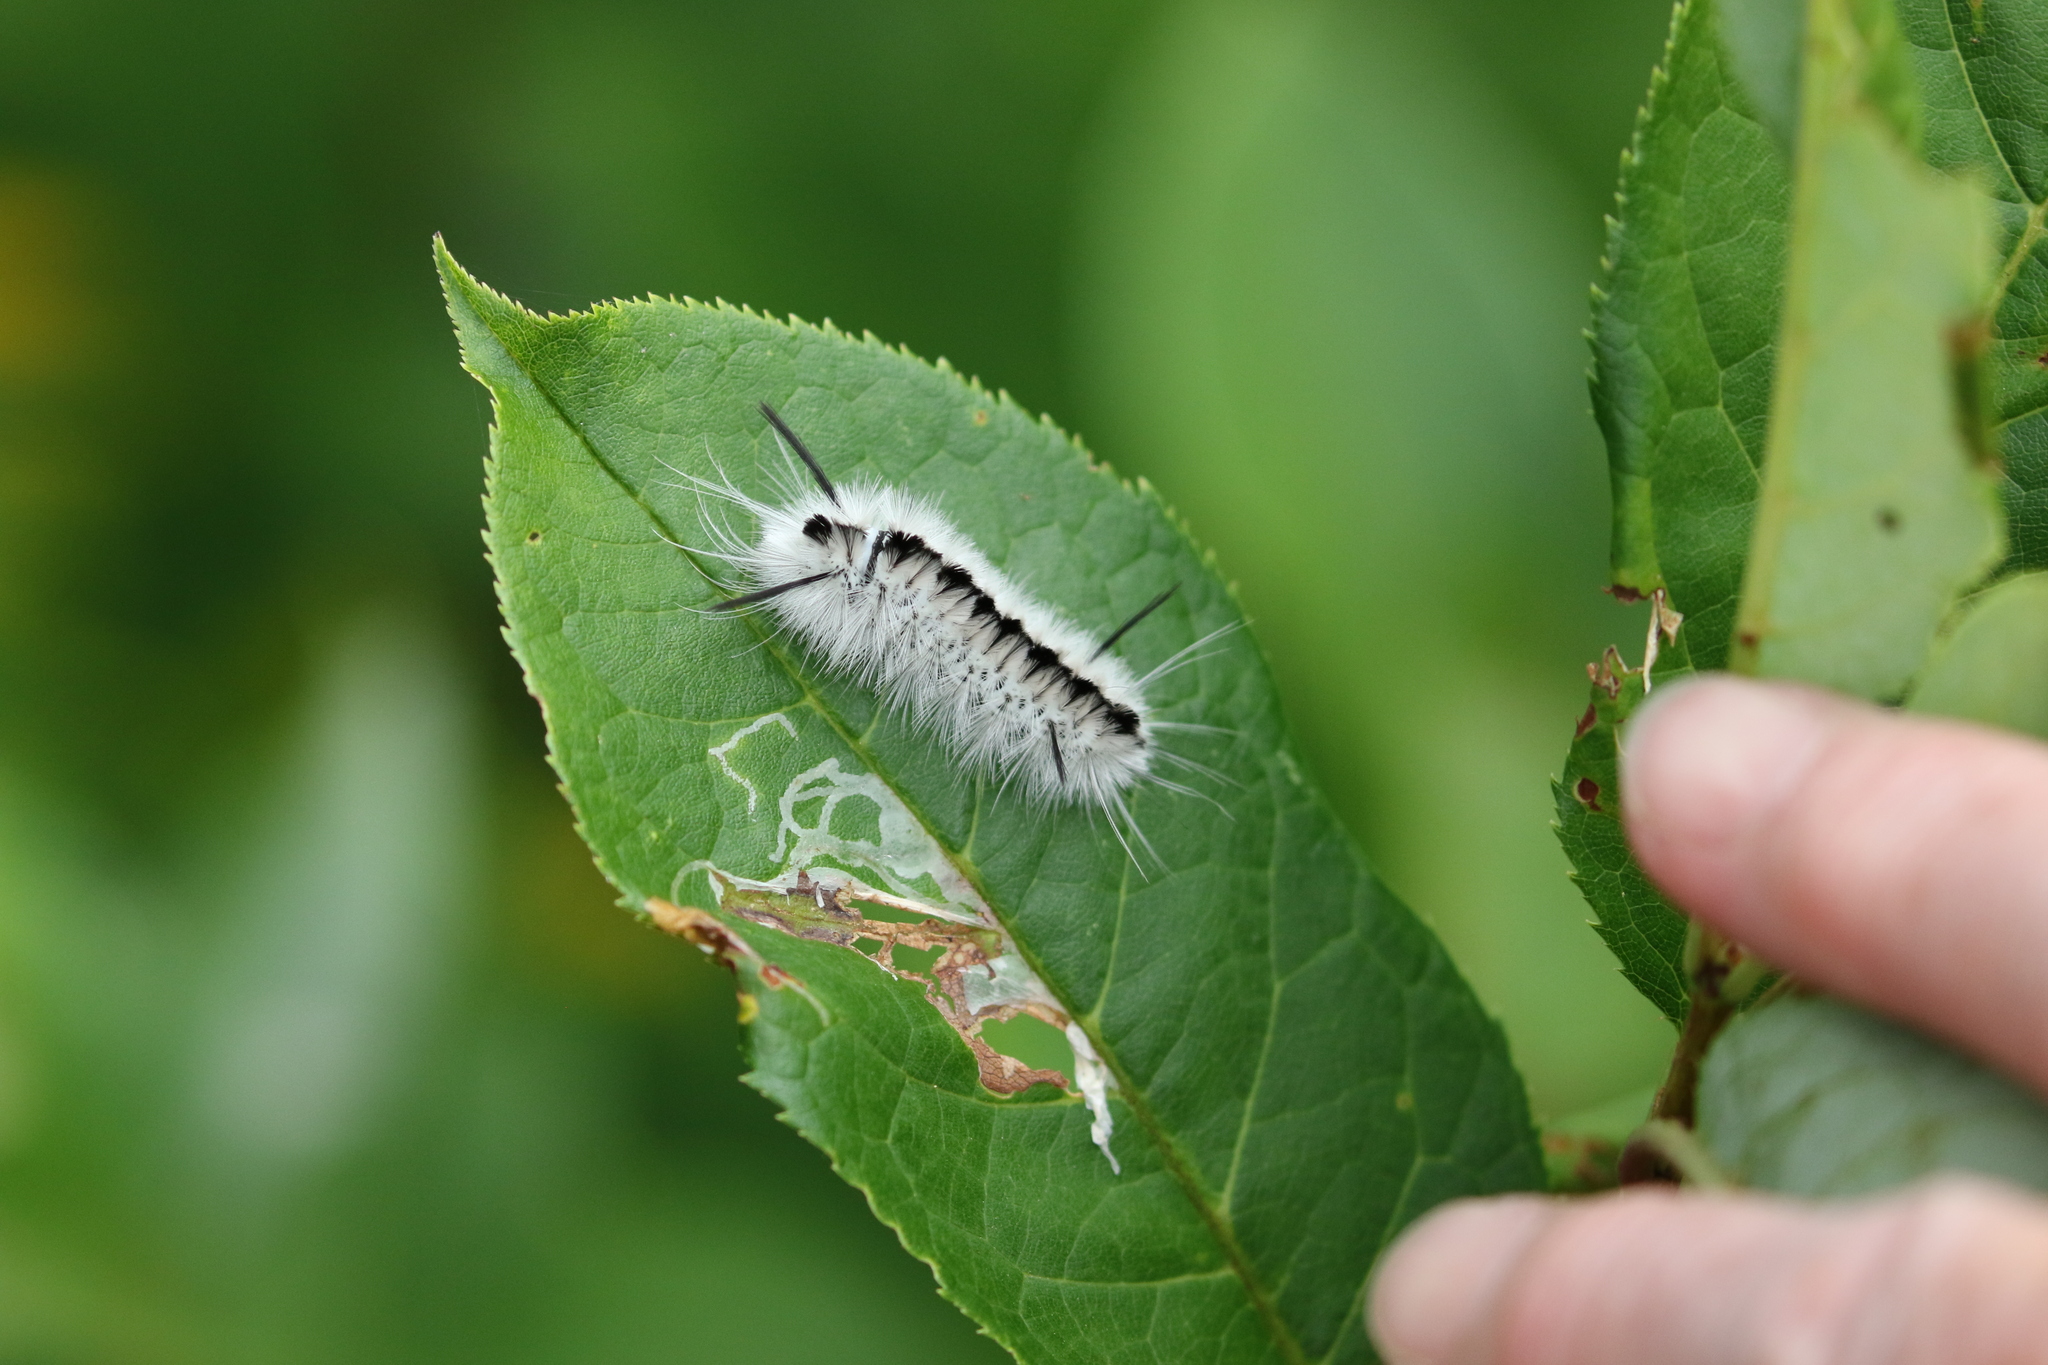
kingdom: Animalia
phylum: Arthropoda
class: Insecta
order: Lepidoptera
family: Erebidae
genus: Lophocampa
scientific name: Lophocampa caryae
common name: Hickory tussock moth
